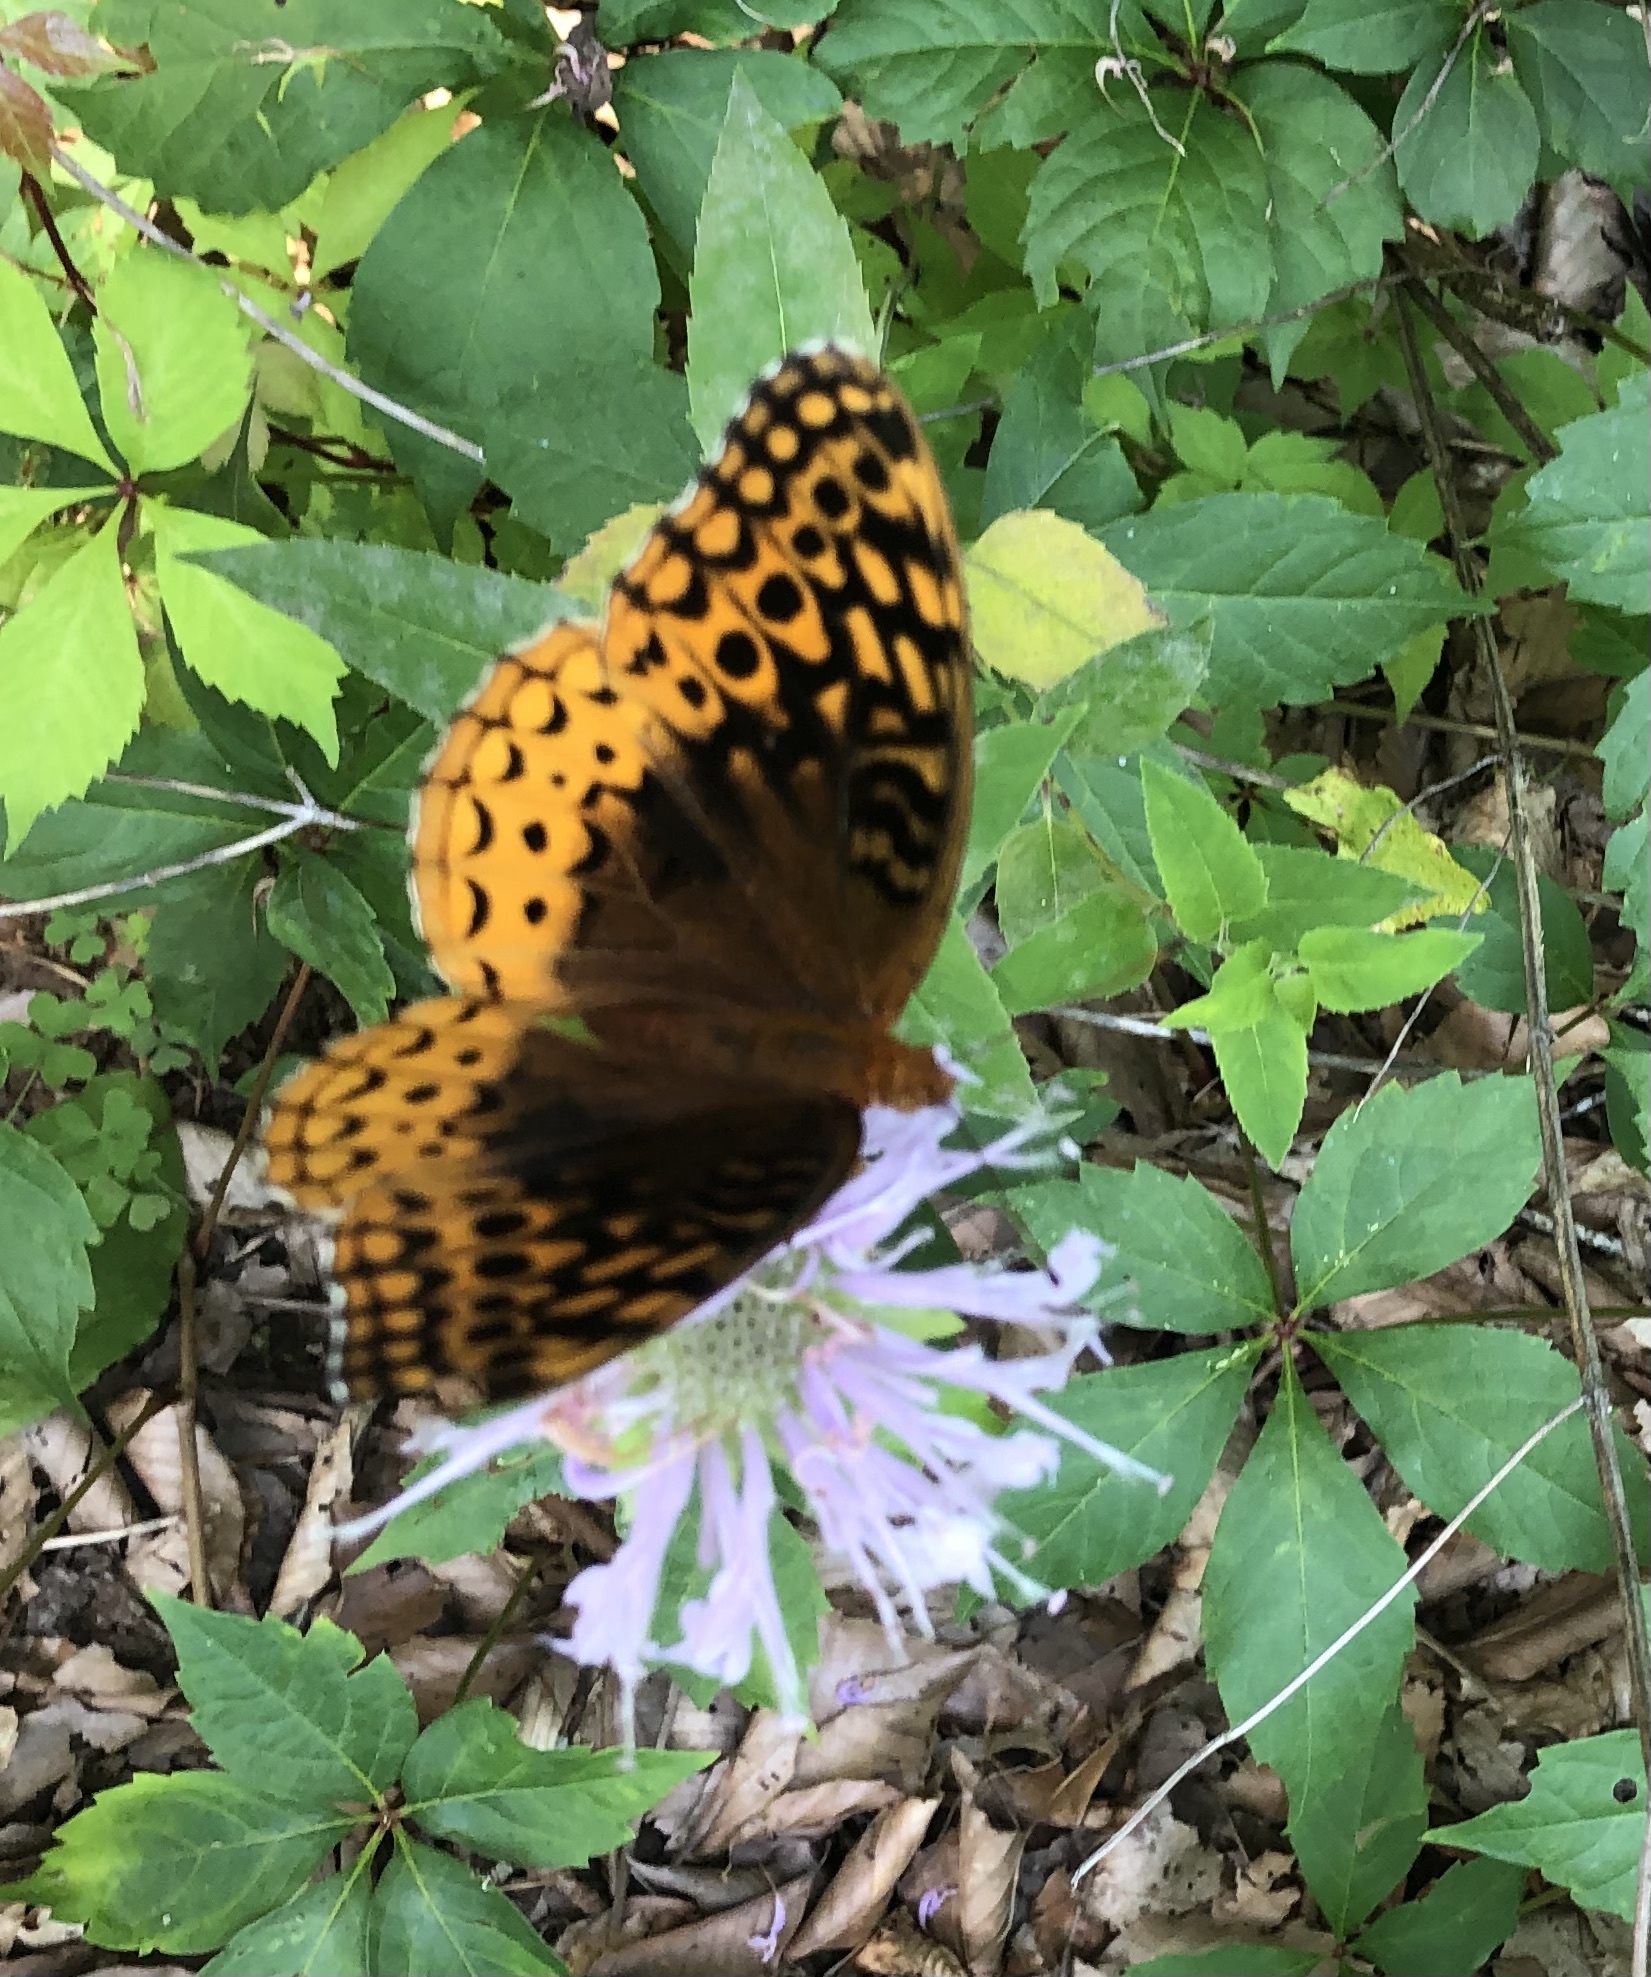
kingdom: Animalia
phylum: Arthropoda
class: Insecta
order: Lepidoptera
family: Nymphalidae
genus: Speyeria
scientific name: Speyeria cybele
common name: Great spangled fritillary
